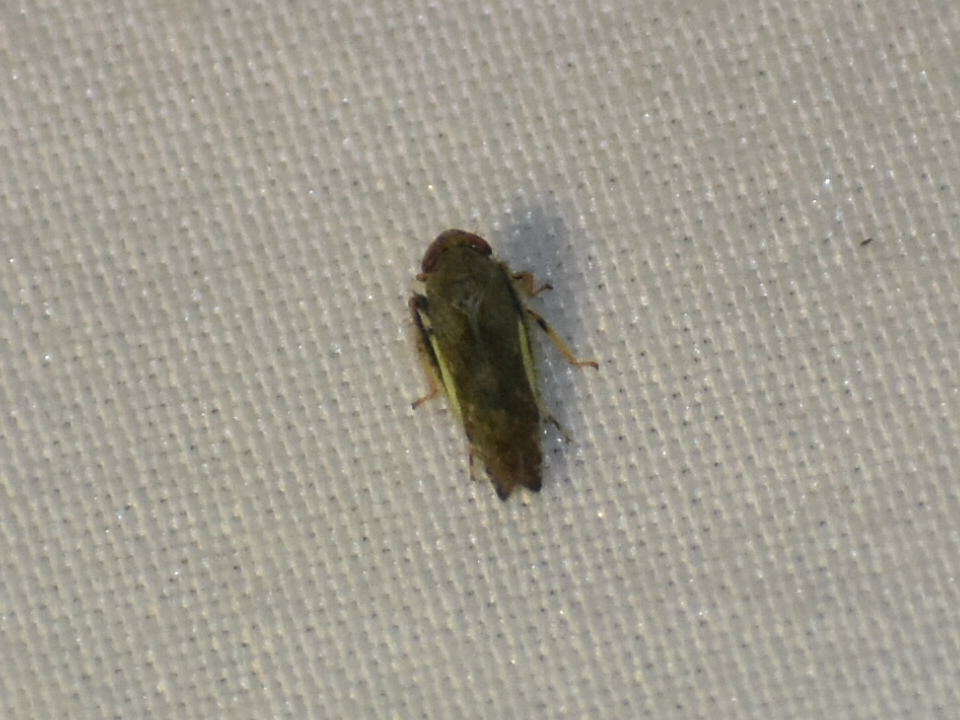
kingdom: Animalia
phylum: Arthropoda
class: Insecta
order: Hemiptera
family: Cicadellidae
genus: Orientus
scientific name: Orientus ishidae
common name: Japanese leafhopper
